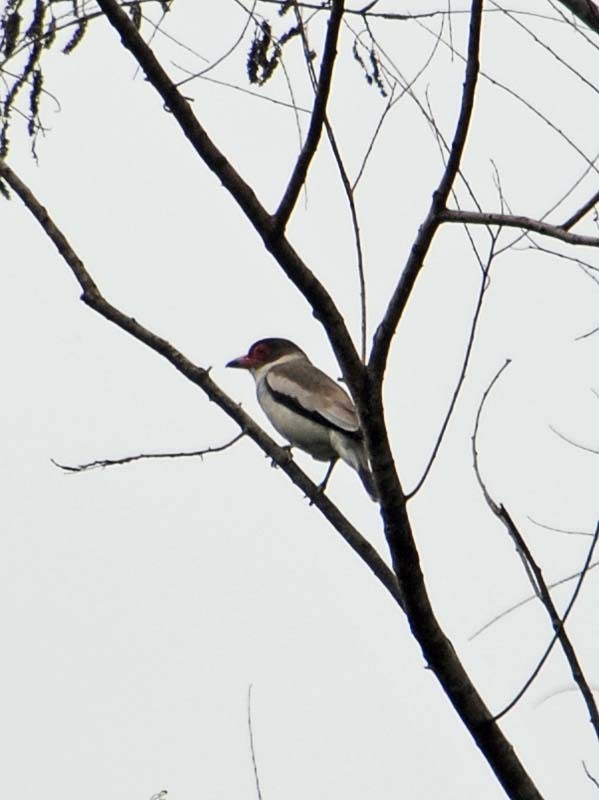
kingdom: Animalia
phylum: Chordata
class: Aves
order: Passeriformes
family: Cotingidae
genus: Tityra
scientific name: Tityra semifasciata
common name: Masked tityra
